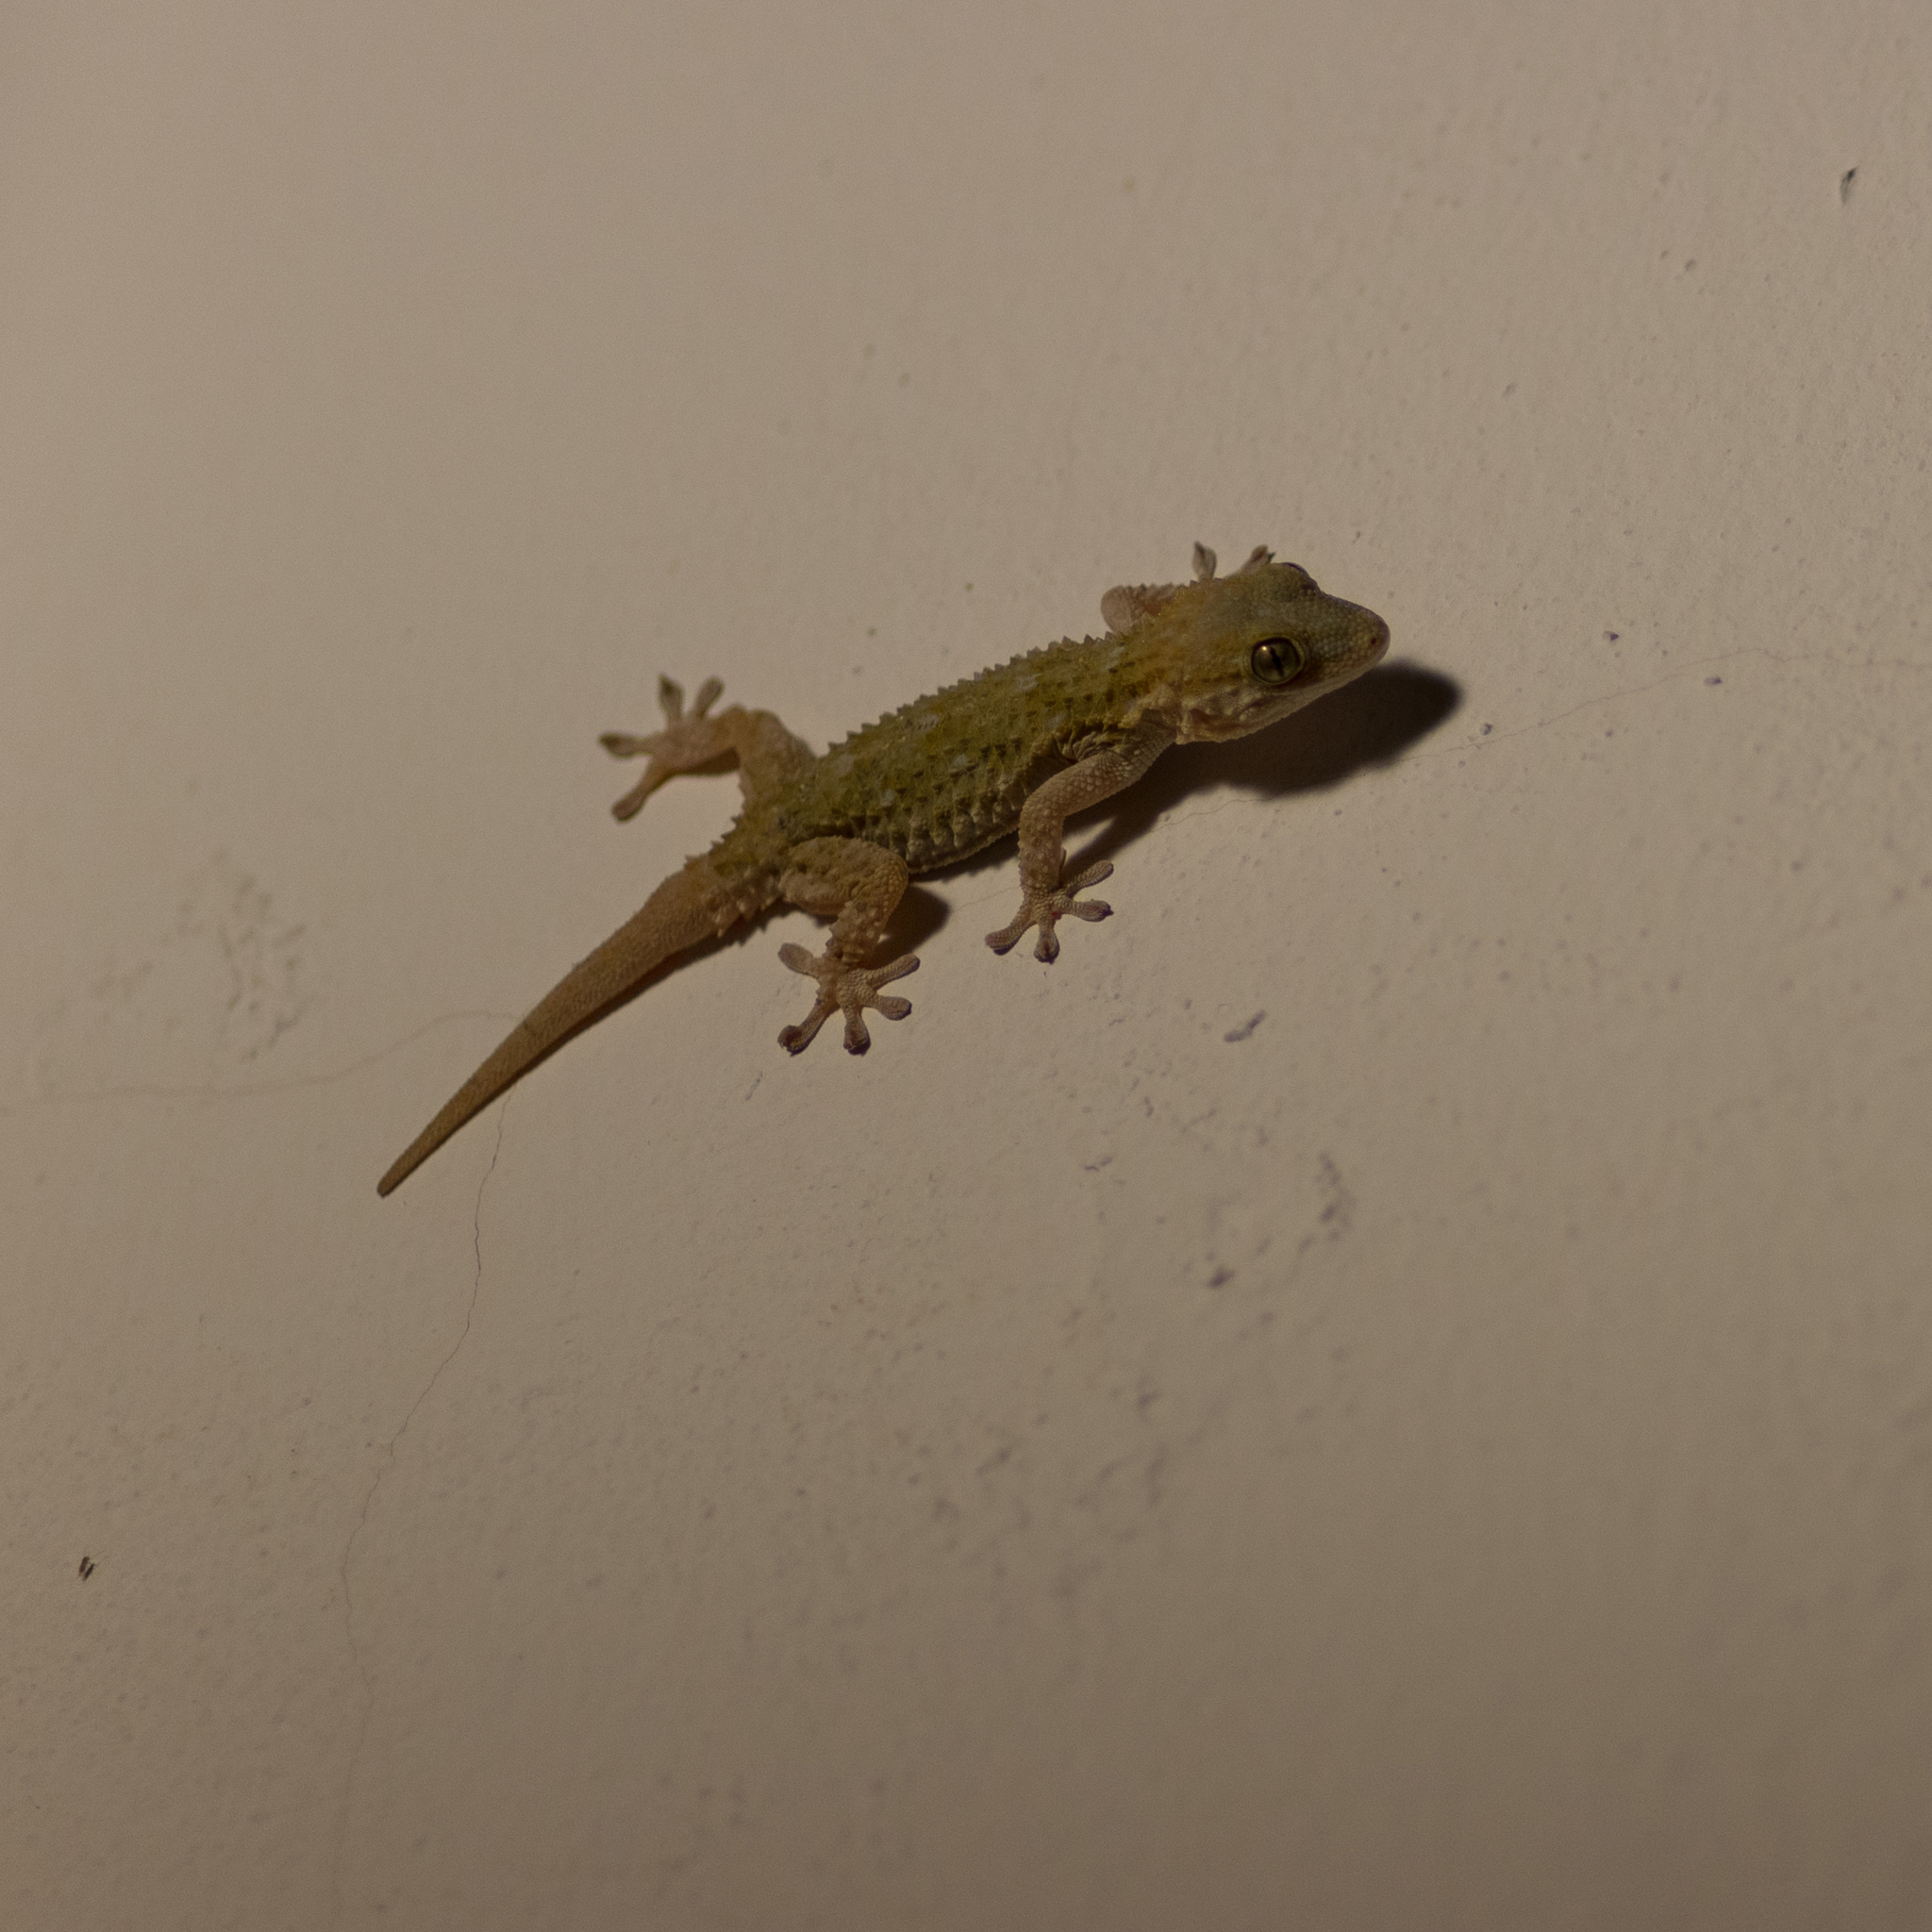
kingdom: Animalia
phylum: Chordata
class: Squamata
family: Phyllodactylidae
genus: Tarentola
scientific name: Tarentola mauritanica
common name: Moorish gecko
